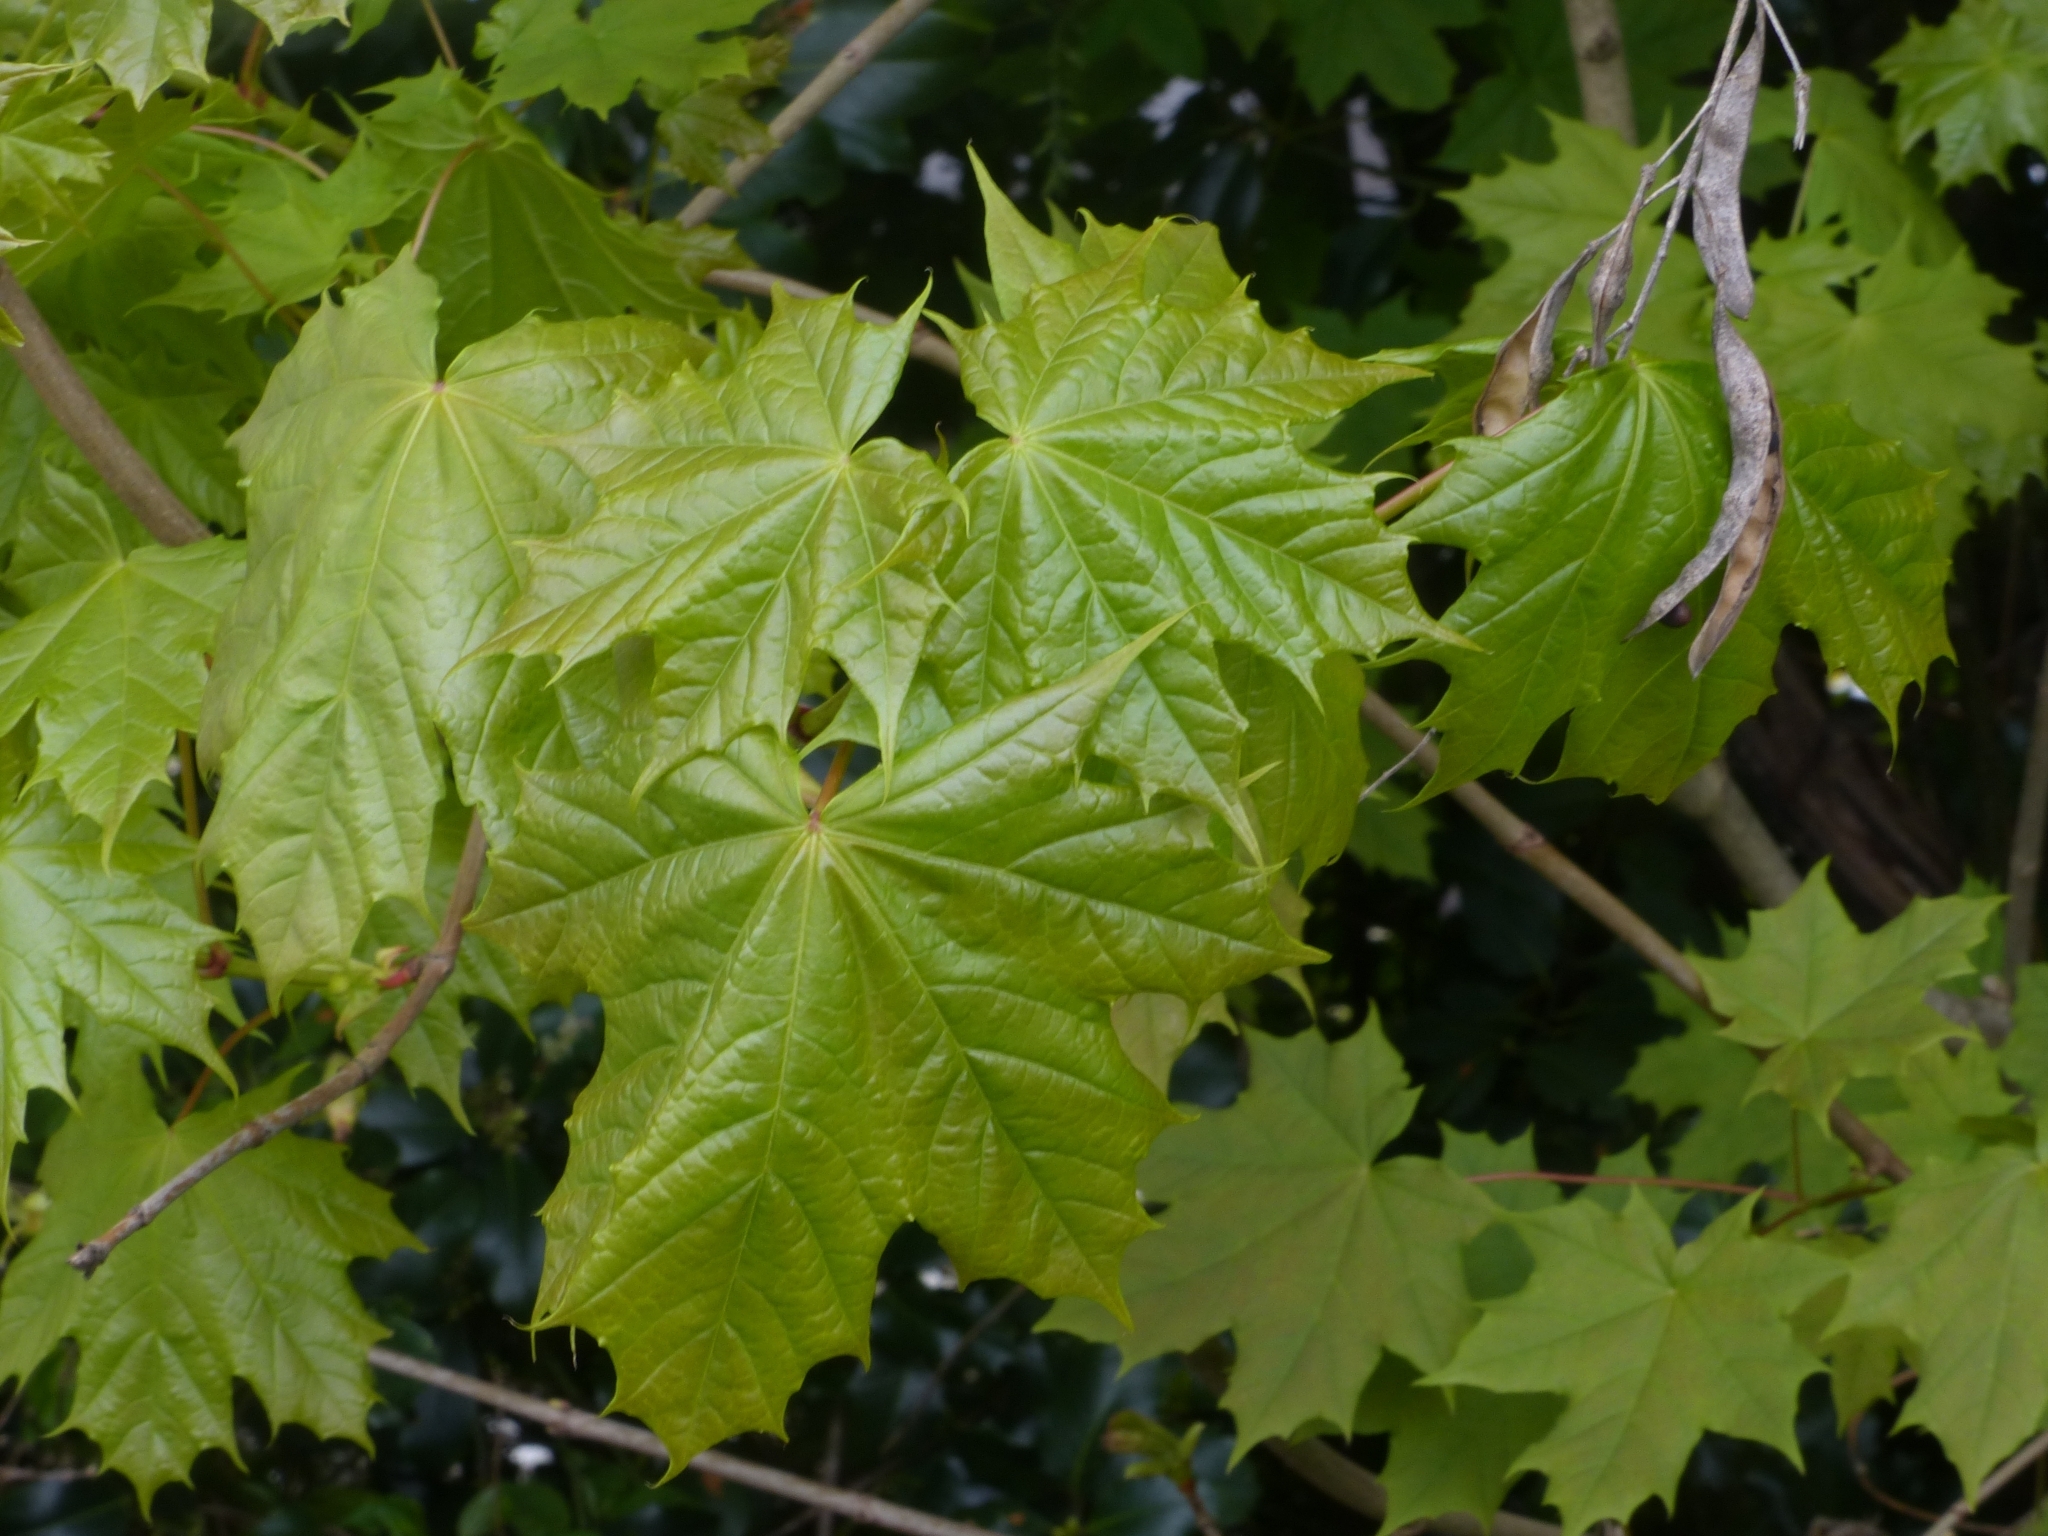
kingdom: Plantae
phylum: Tracheophyta
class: Magnoliopsida
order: Sapindales
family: Sapindaceae
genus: Acer
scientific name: Acer platanoides
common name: Norway maple
